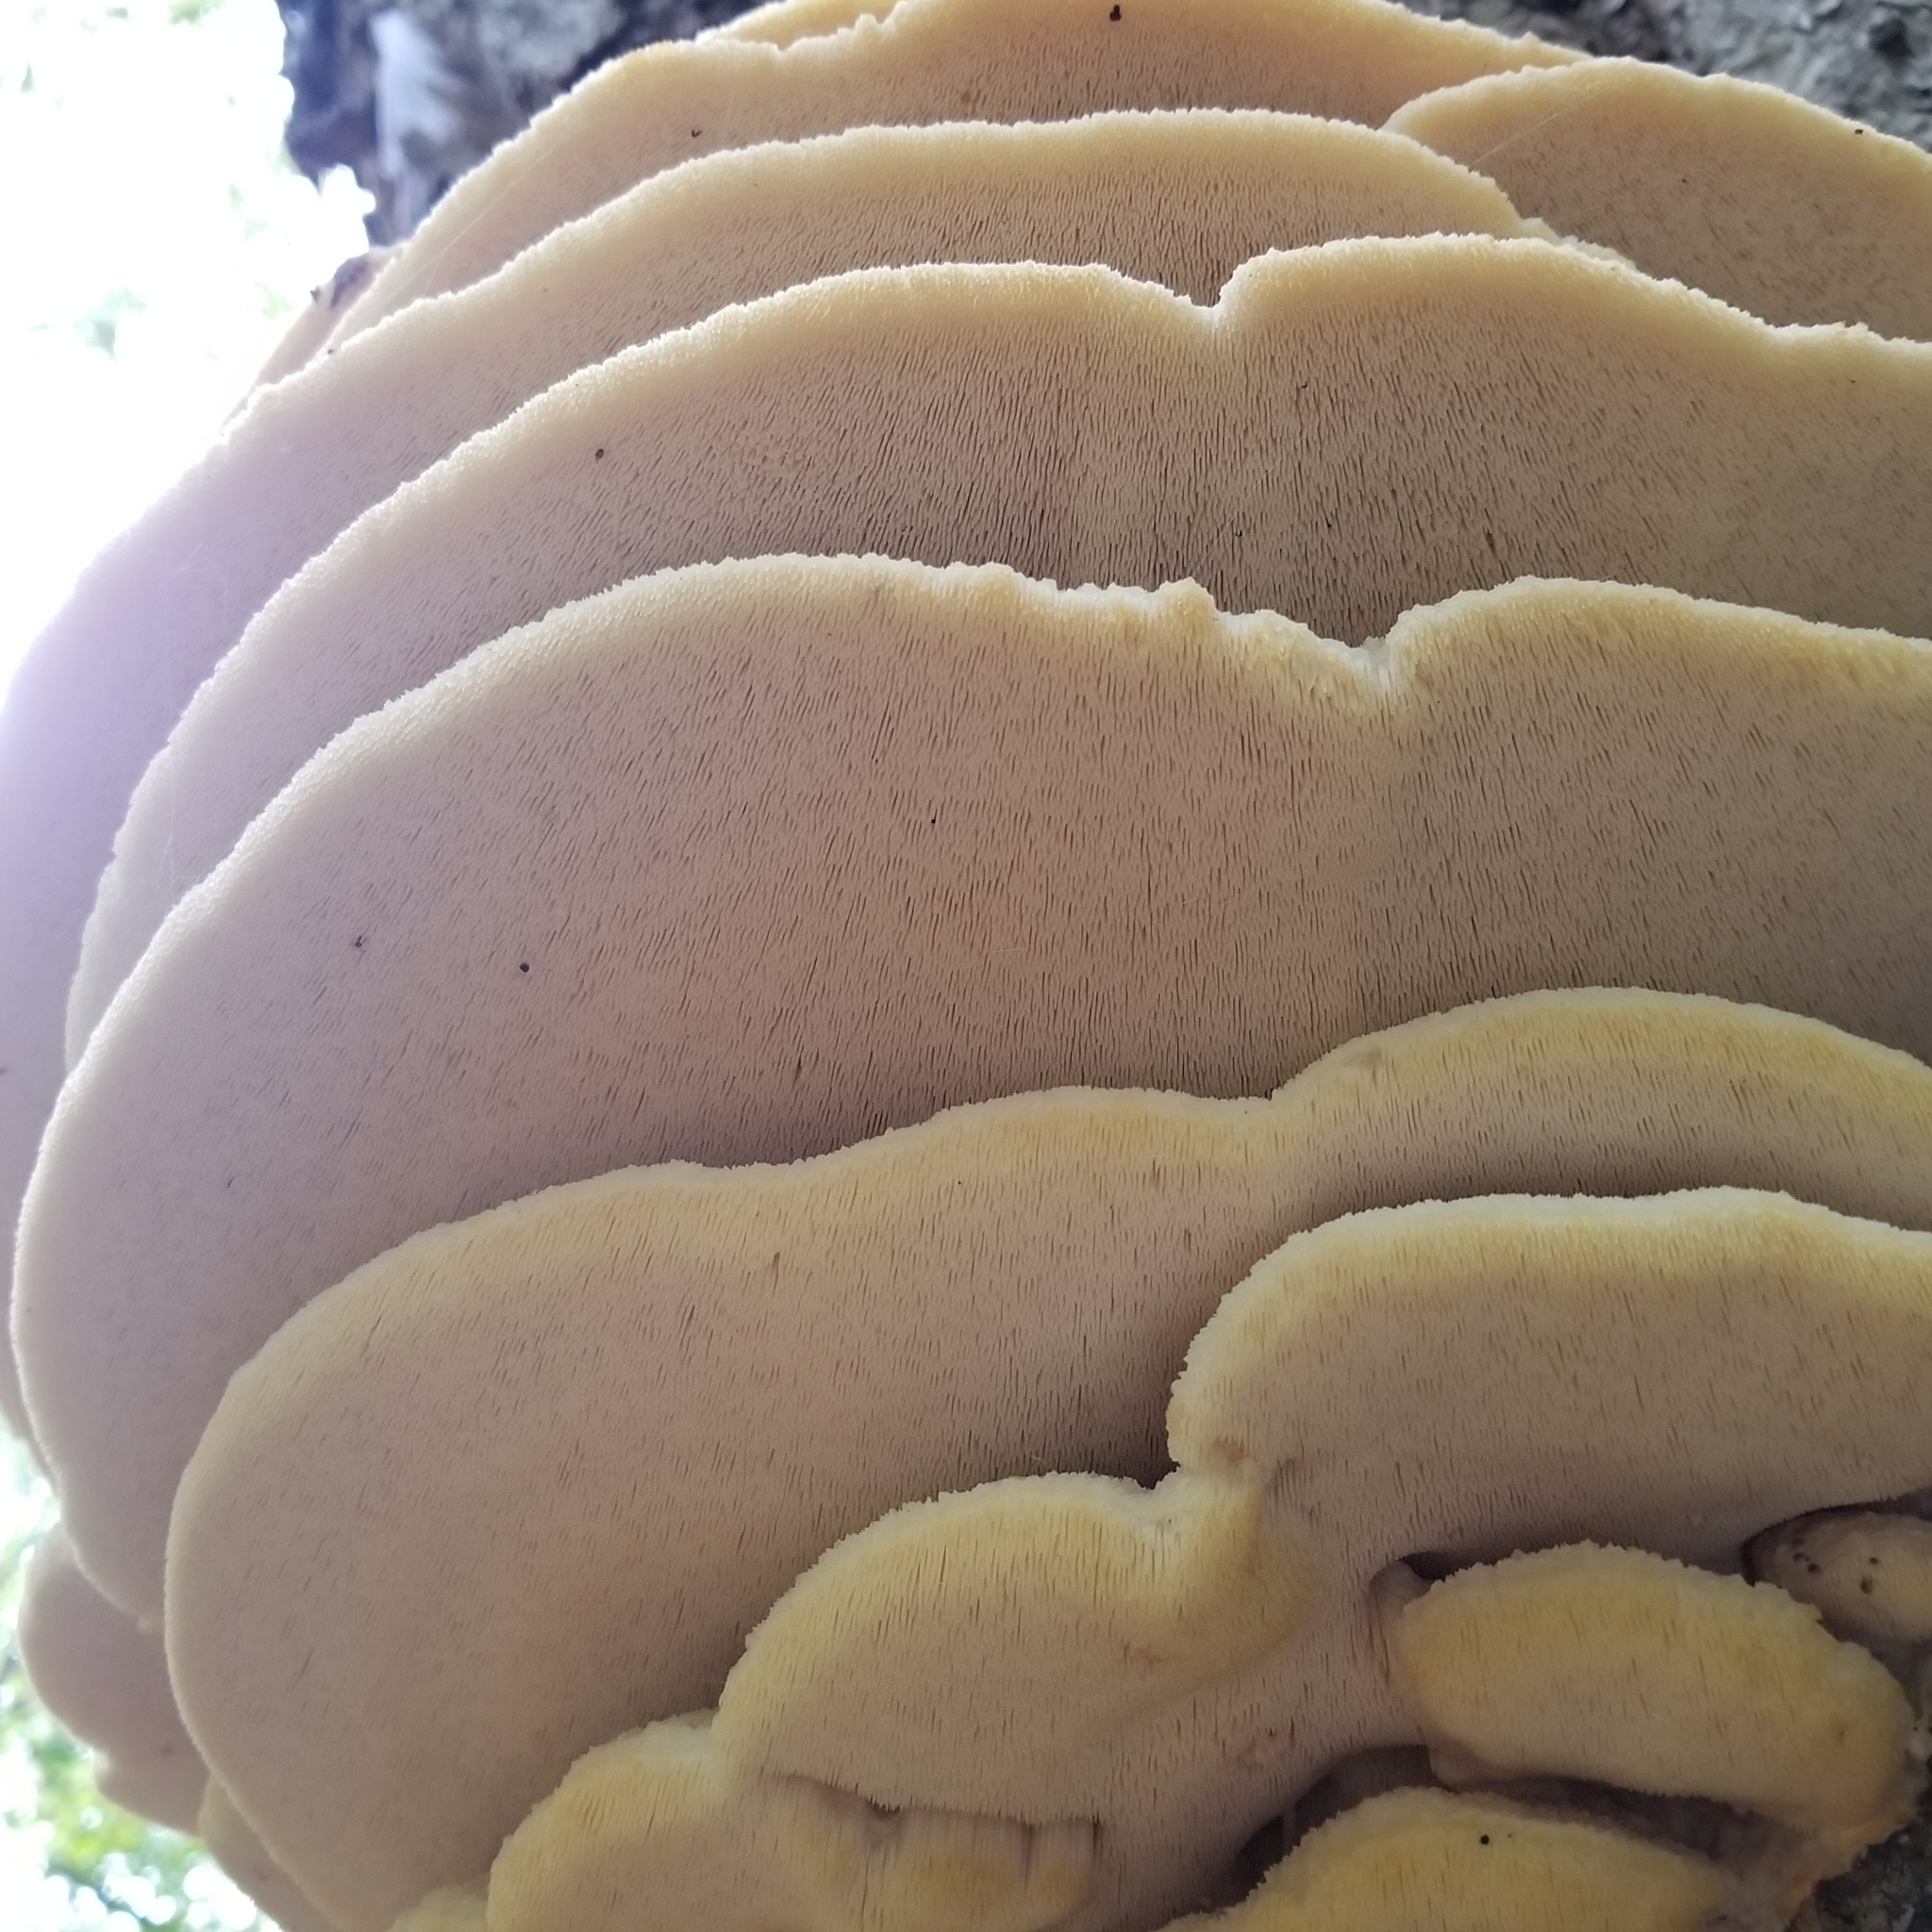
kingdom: Fungi
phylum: Basidiomycota
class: Agaricomycetes
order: Polyporales
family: Meruliaceae
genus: Climacodon
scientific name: Climacodon septentrionalis
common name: Northern tooth
